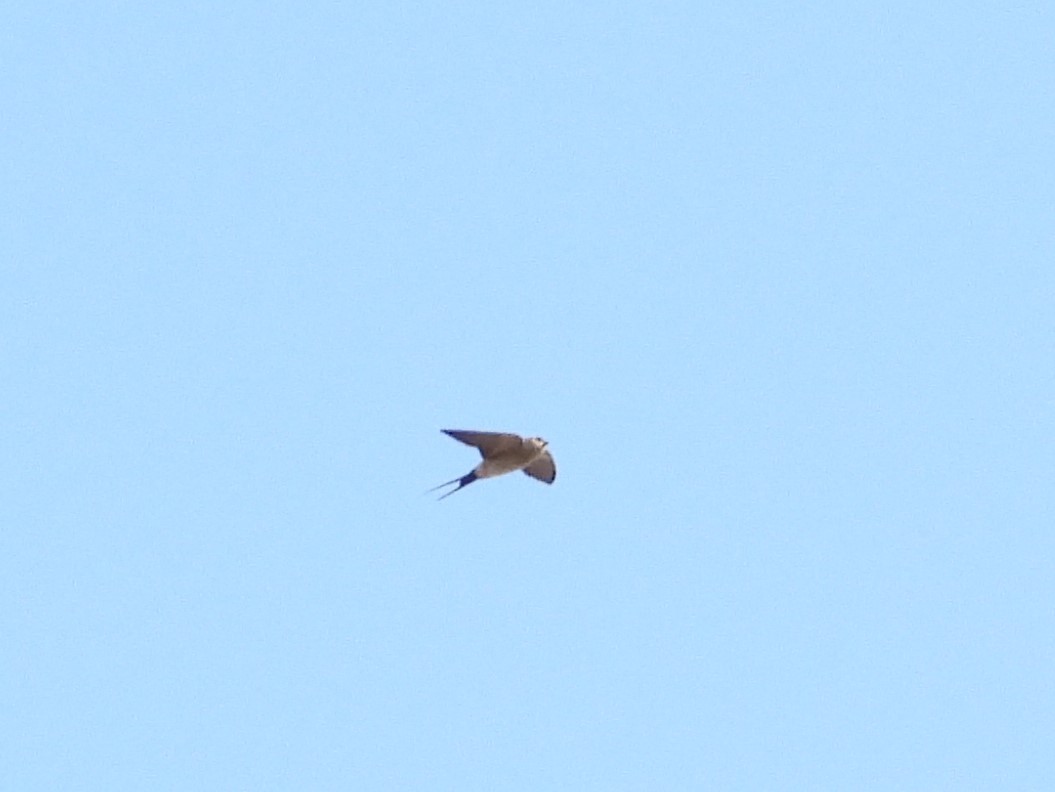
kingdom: Animalia
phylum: Chordata
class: Aves
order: Passeriformes
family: Hirundinidae
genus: Cecropis
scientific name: Cecropis daurica
